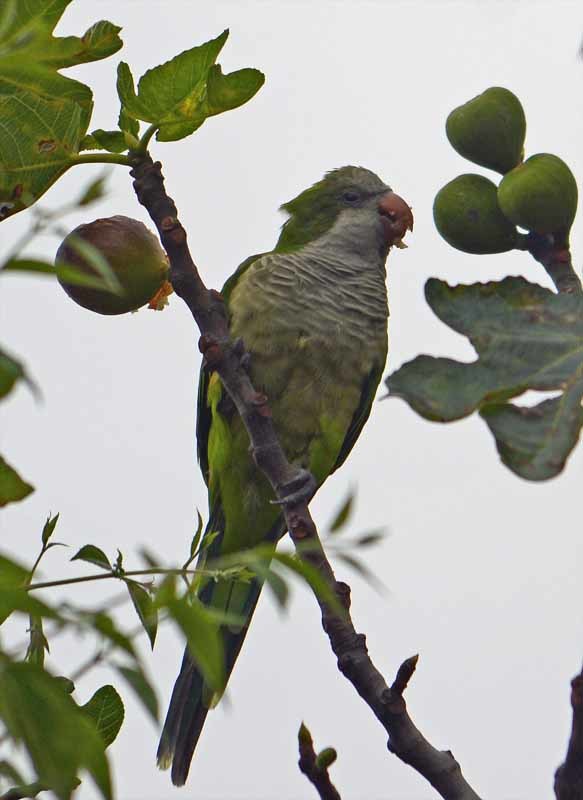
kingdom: Animalia
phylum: Chordata
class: Aves
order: Psittaciformes
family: Psittacidae
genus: Myiopsitta
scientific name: Myiopsitta monachus
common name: Monk parakeet
